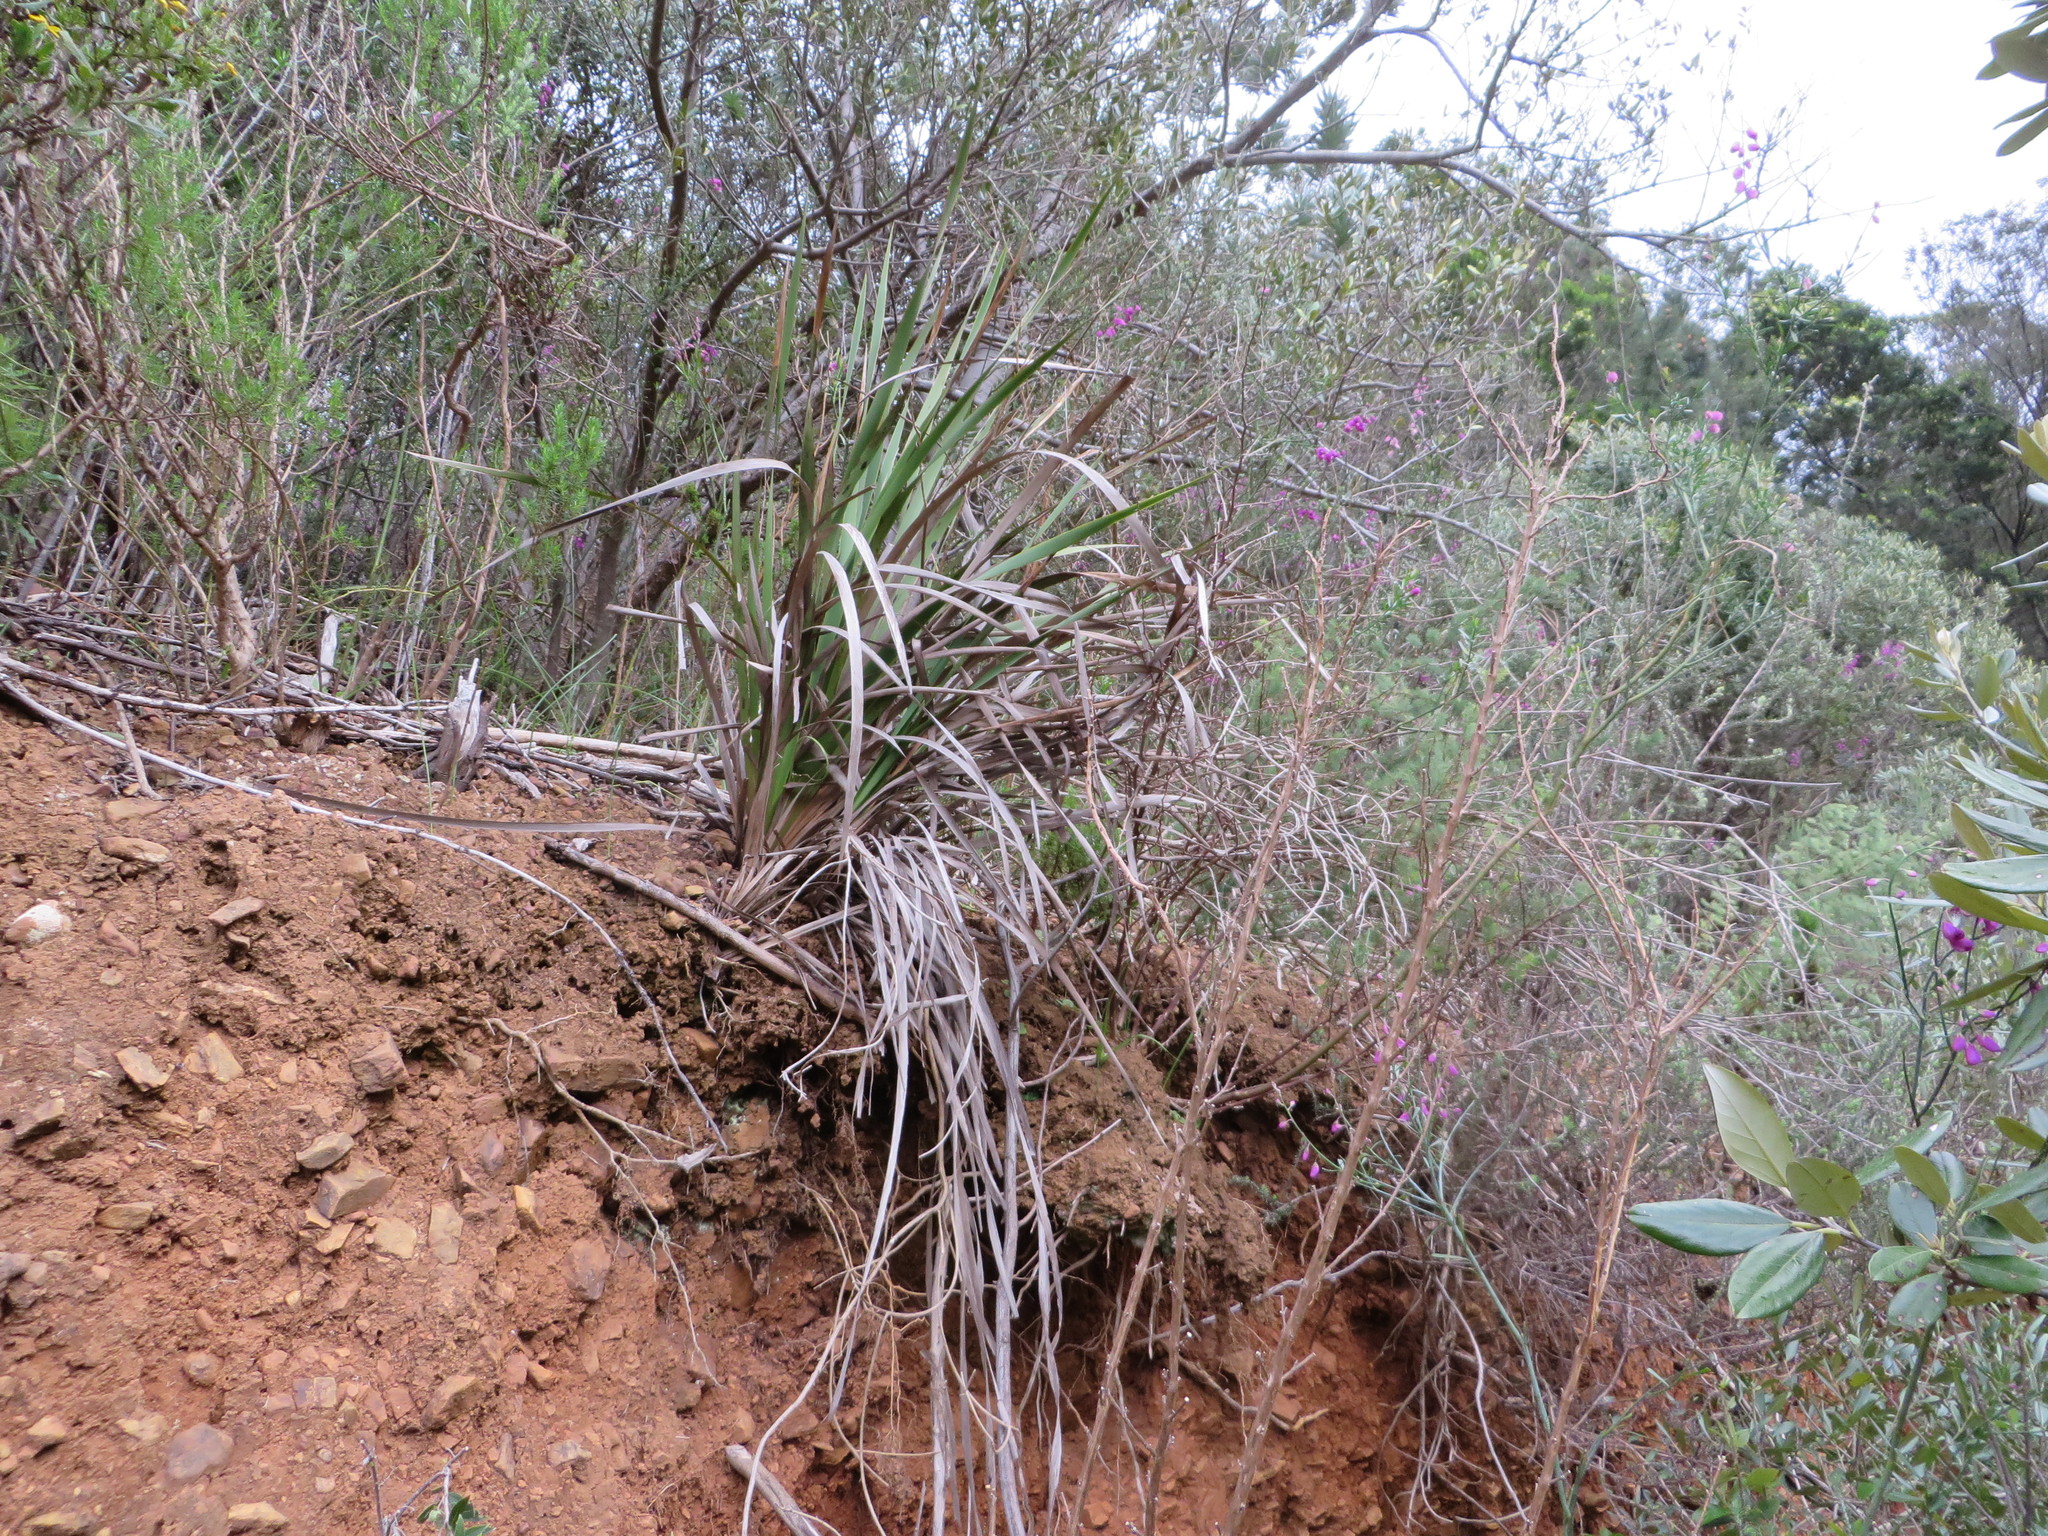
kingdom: Plantae
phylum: Tracheophyta
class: Liliopsida
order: Asparagales
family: Iridaceae
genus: Aristea
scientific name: Aristea capitata
